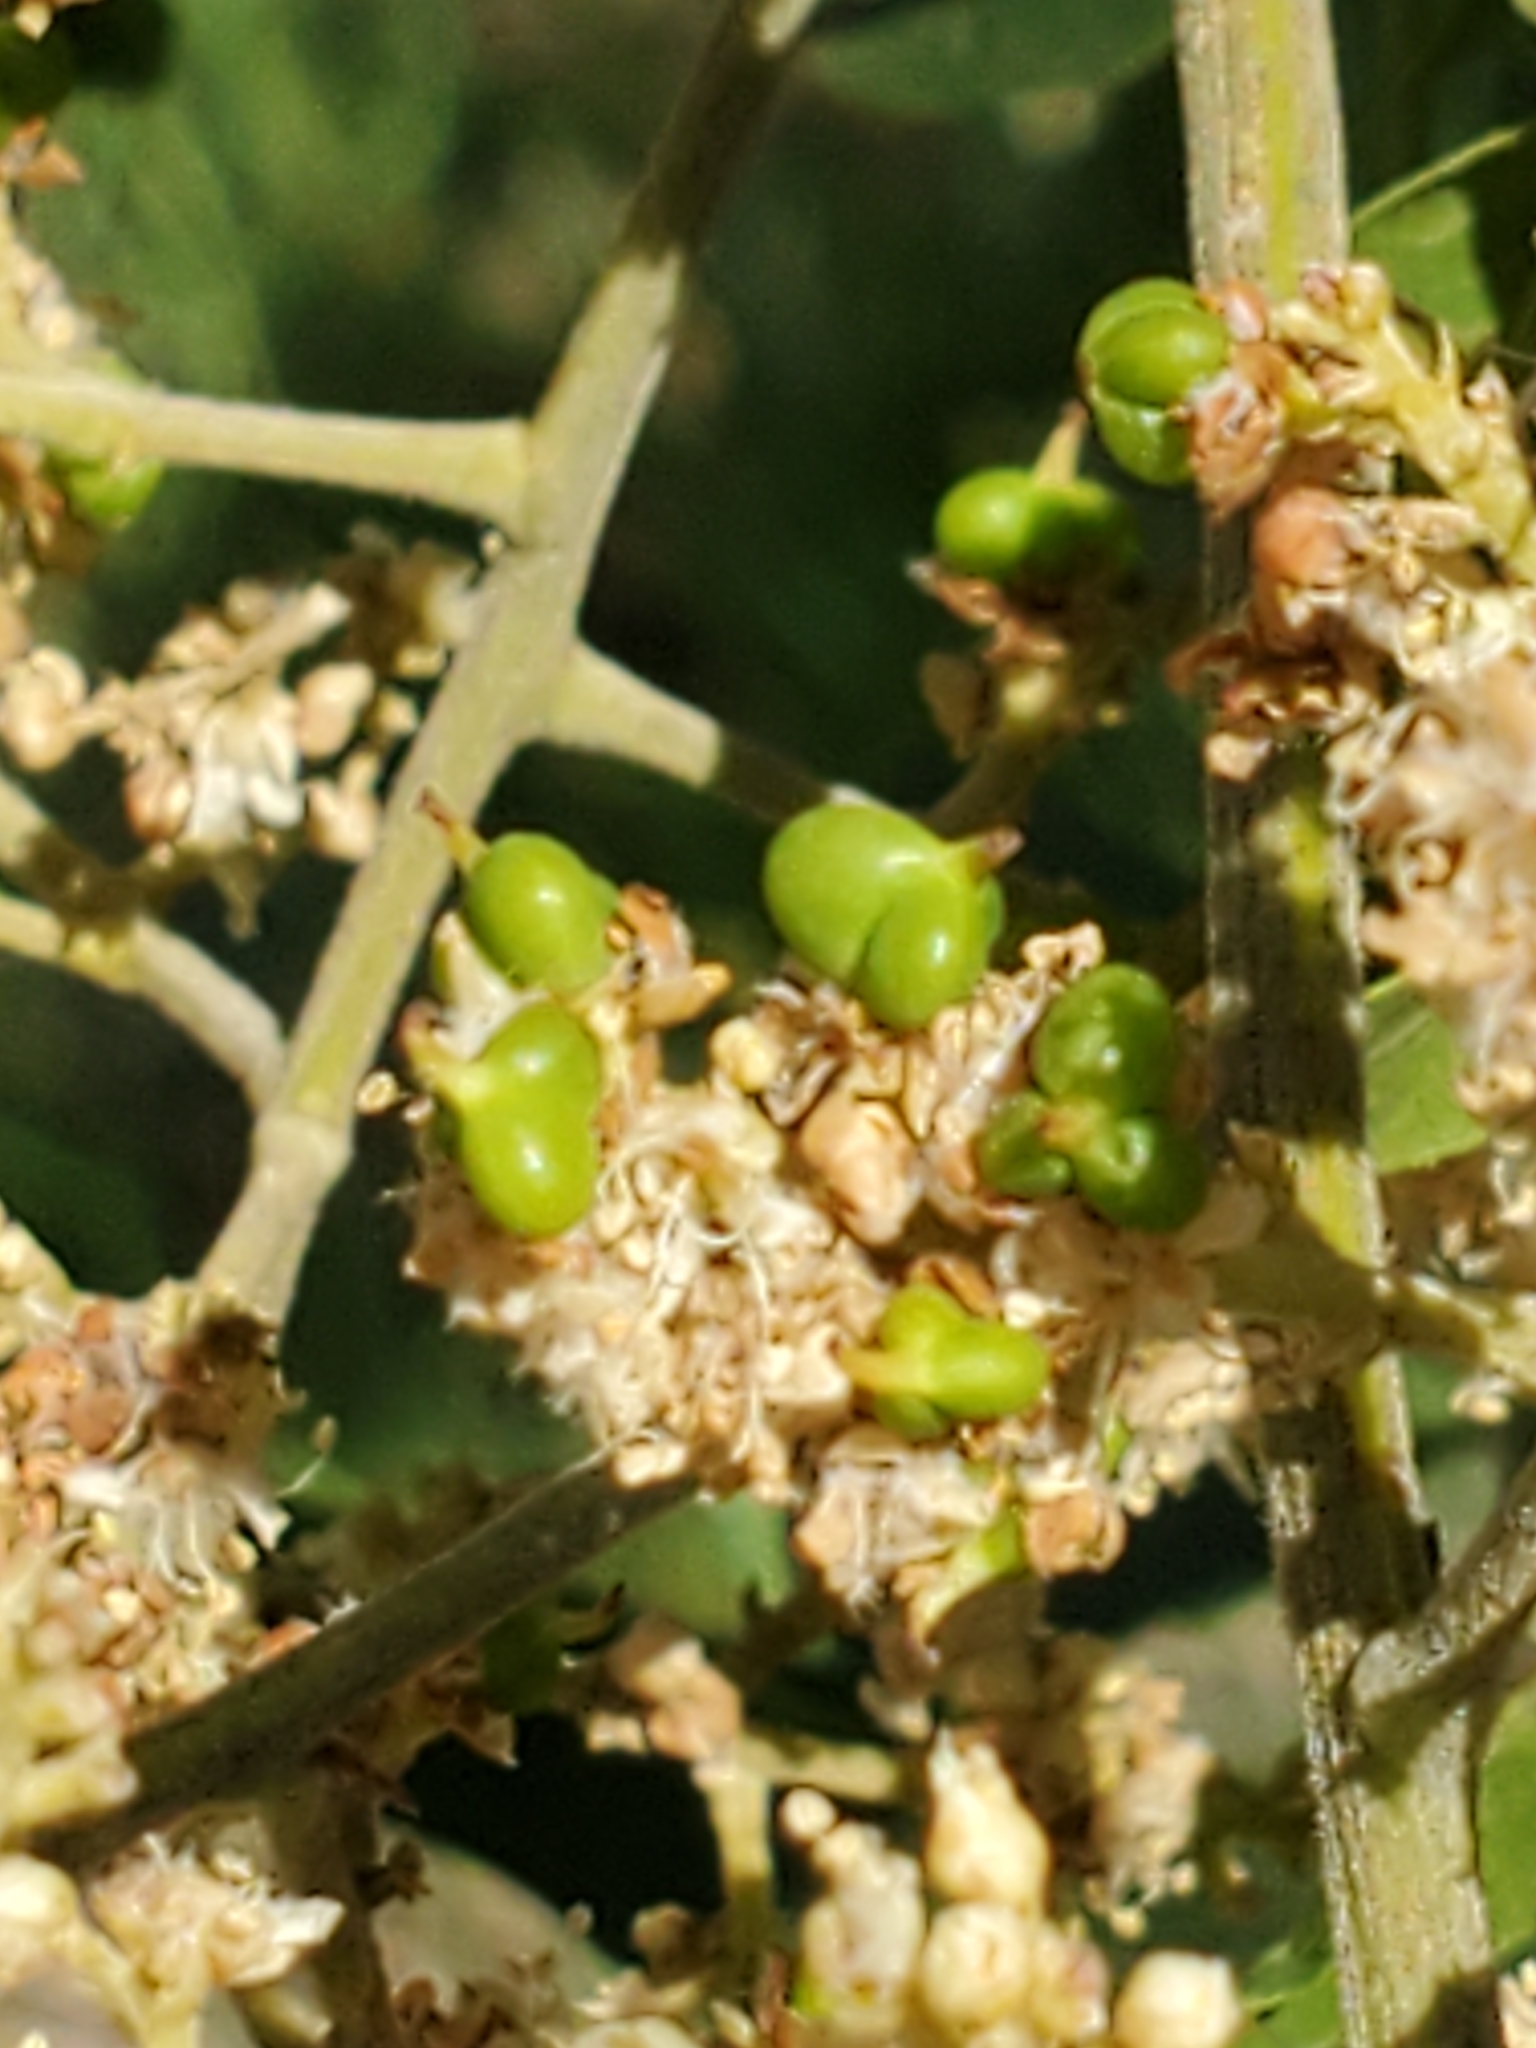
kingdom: Plantae
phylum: Tracheophyta
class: Magnoliopsida
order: Sapindales
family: Sapindaceae
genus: Sapindus
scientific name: Sapindus drummondii
